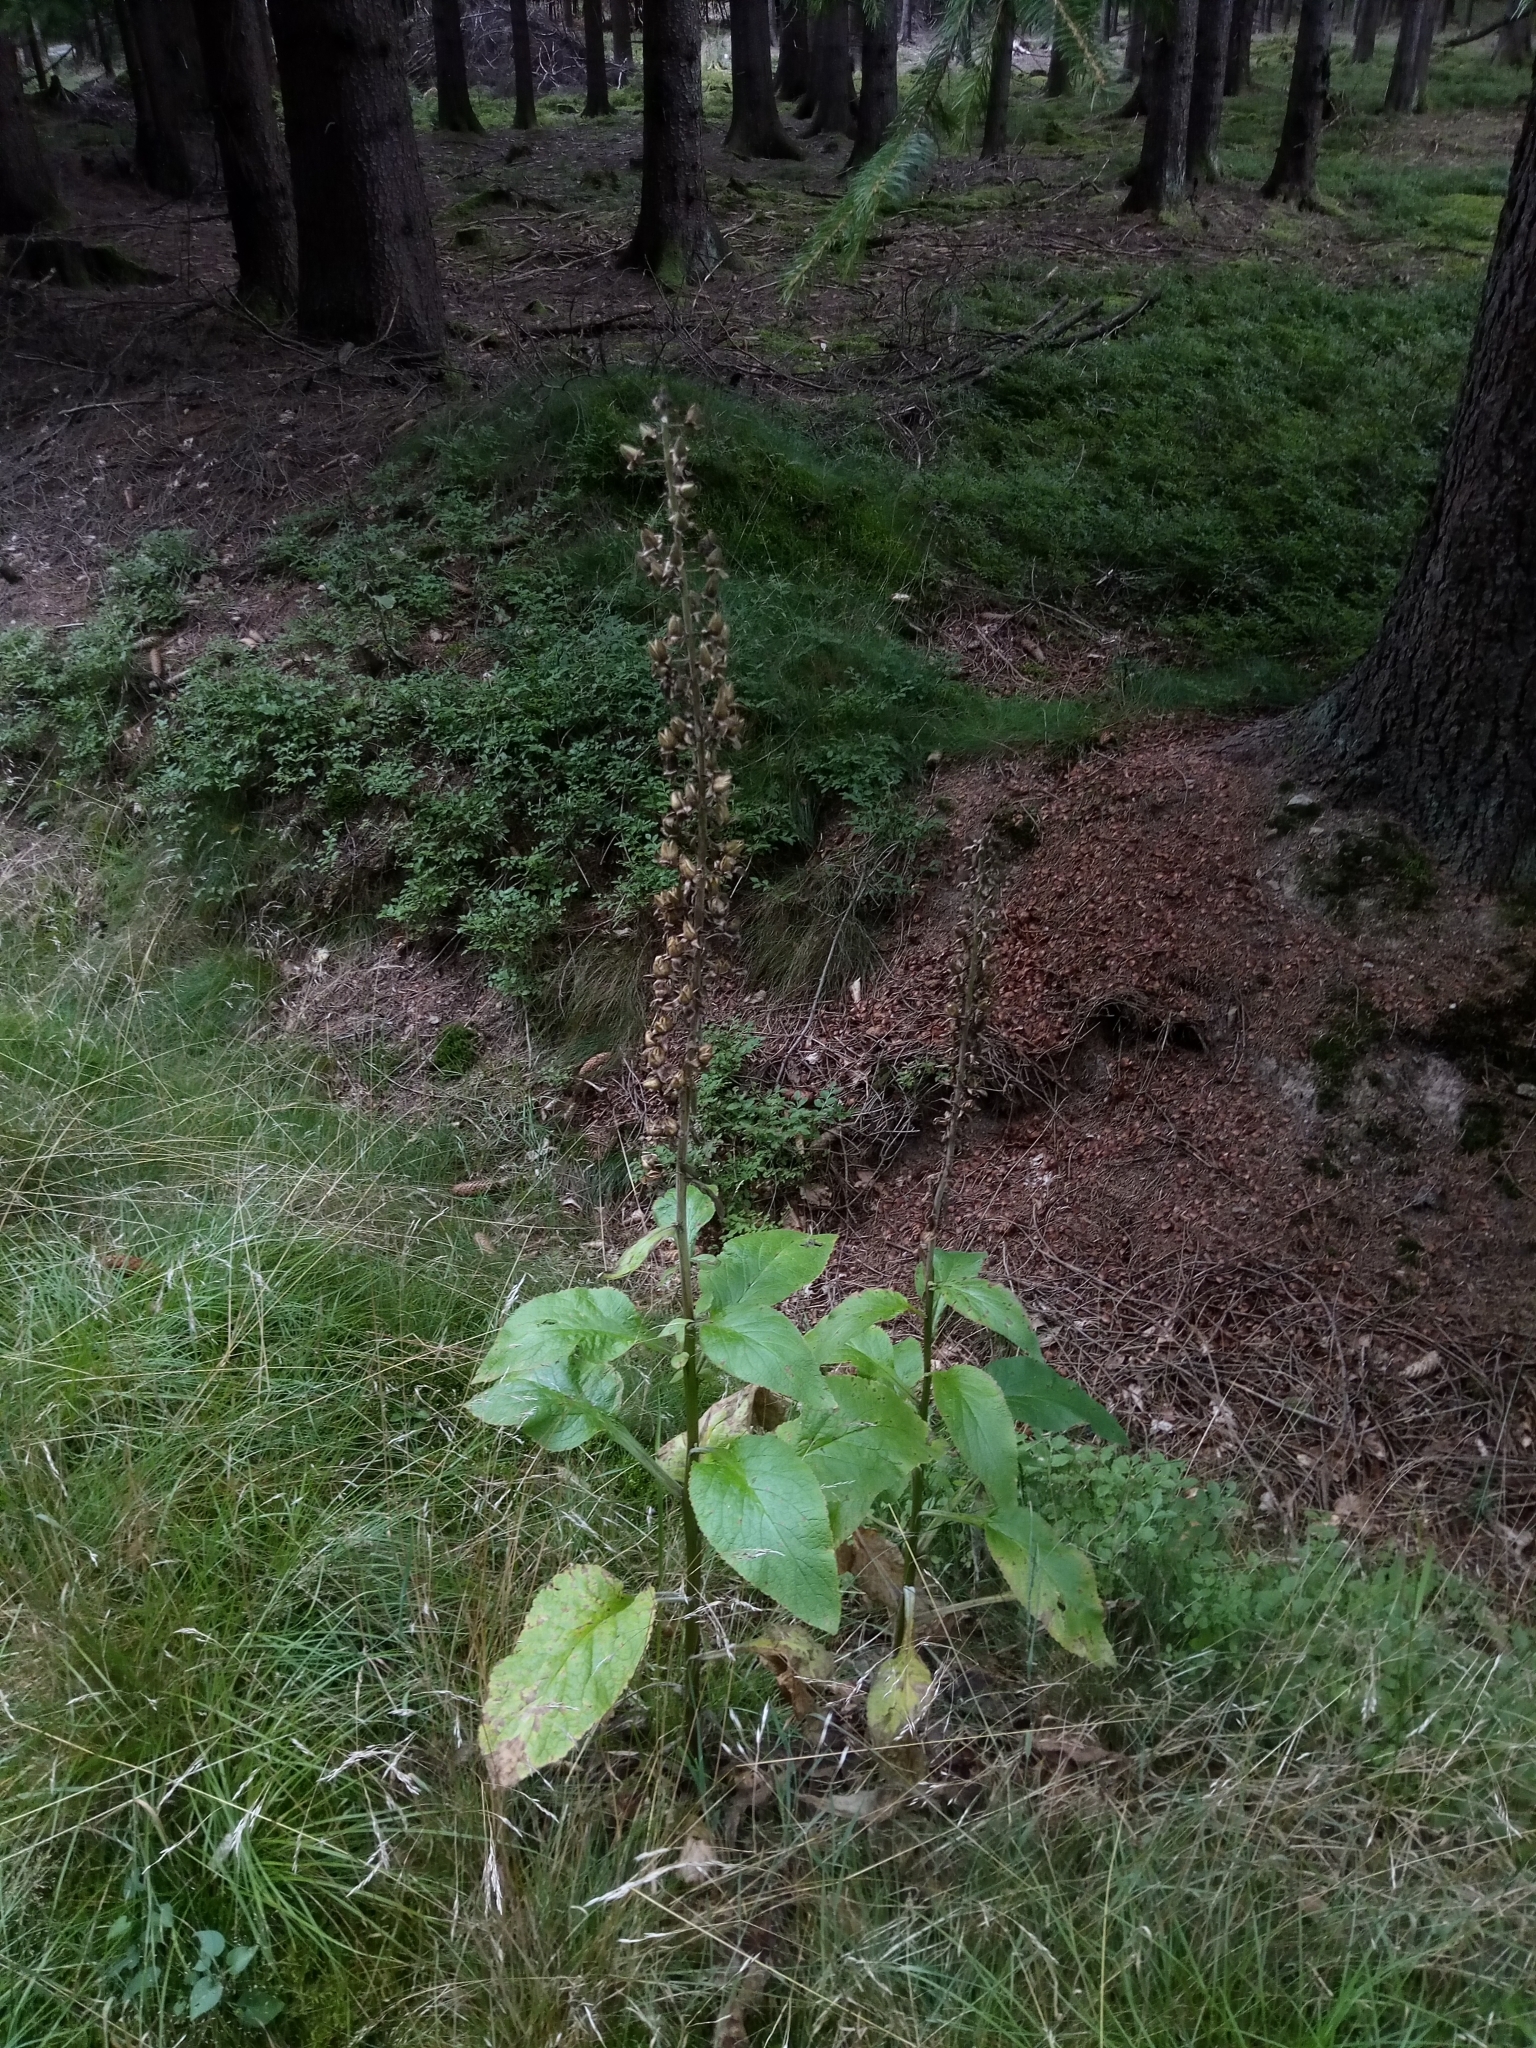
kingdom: Plantae
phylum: Tracheophyta
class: Magnoliopsida
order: Lamiales
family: Plantaginaceae
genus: Digitalis
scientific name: Digitalis purpurea
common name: Foxglove
